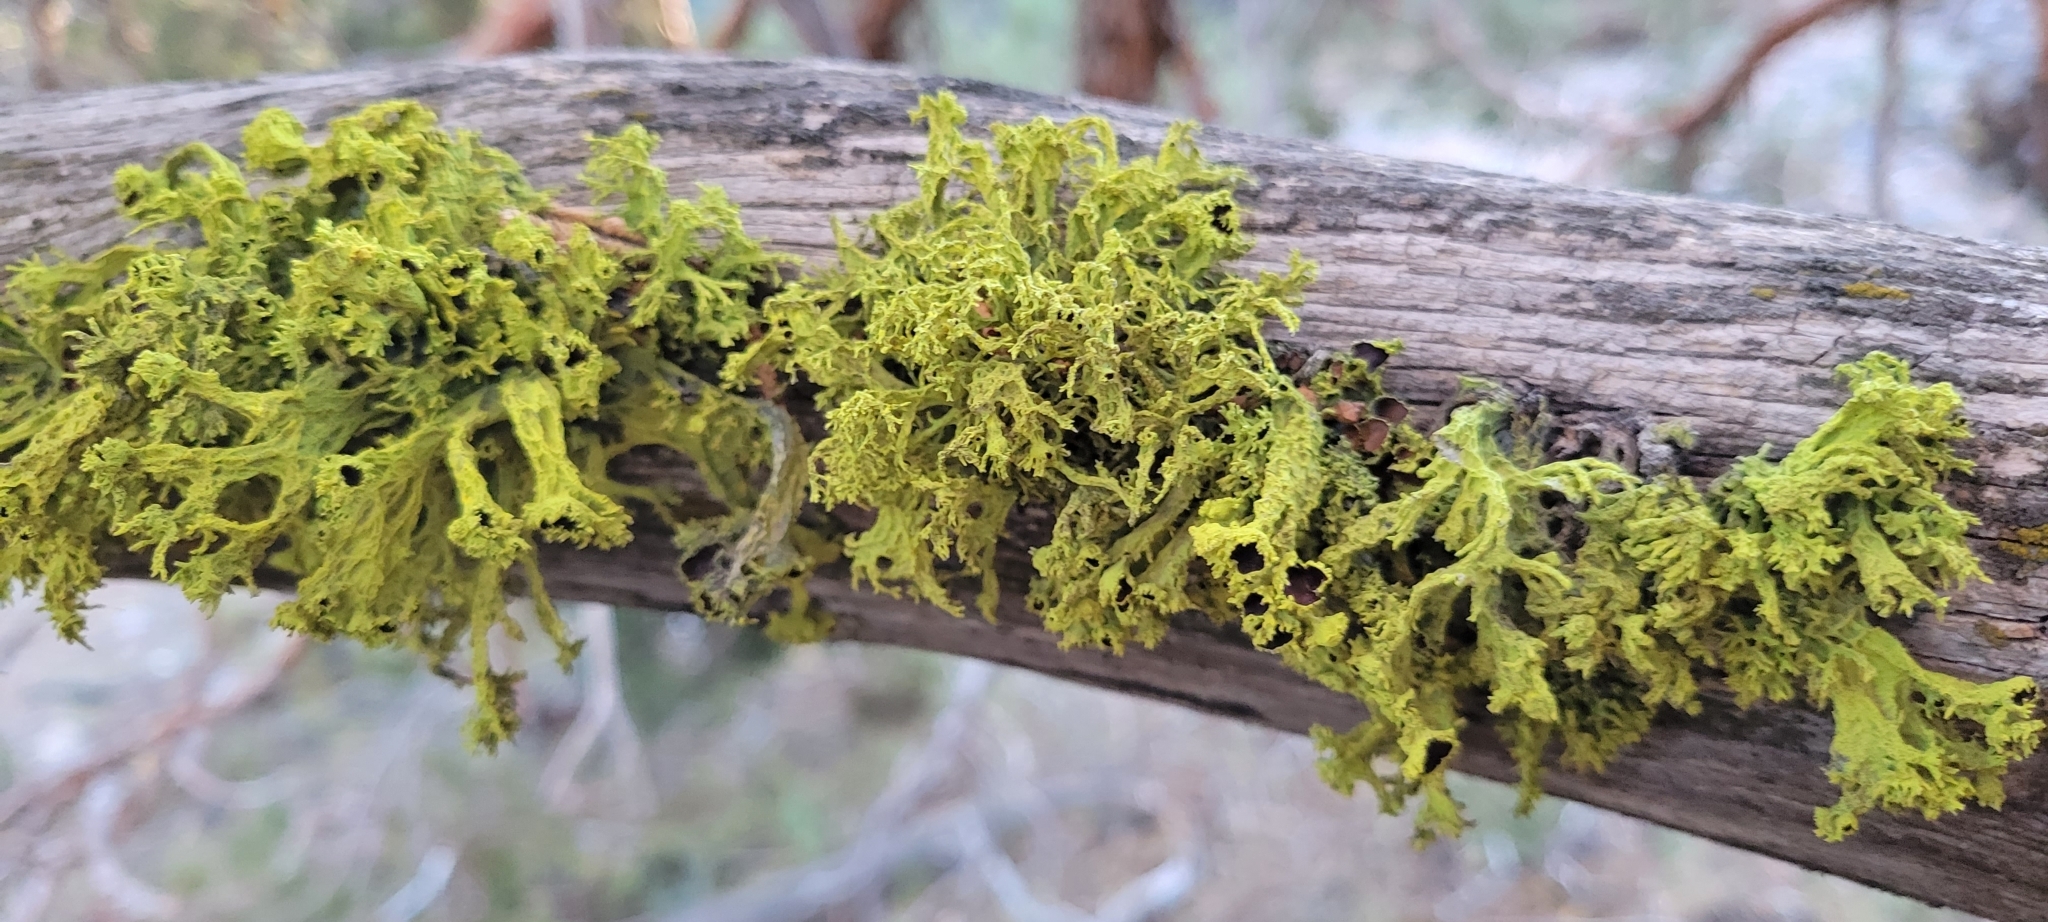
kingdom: Fungi
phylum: Ascomycota
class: Lecanoromycetes
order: Lecanorales
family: Parmeliaceae
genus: Letharia
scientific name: Letharia columbiana
